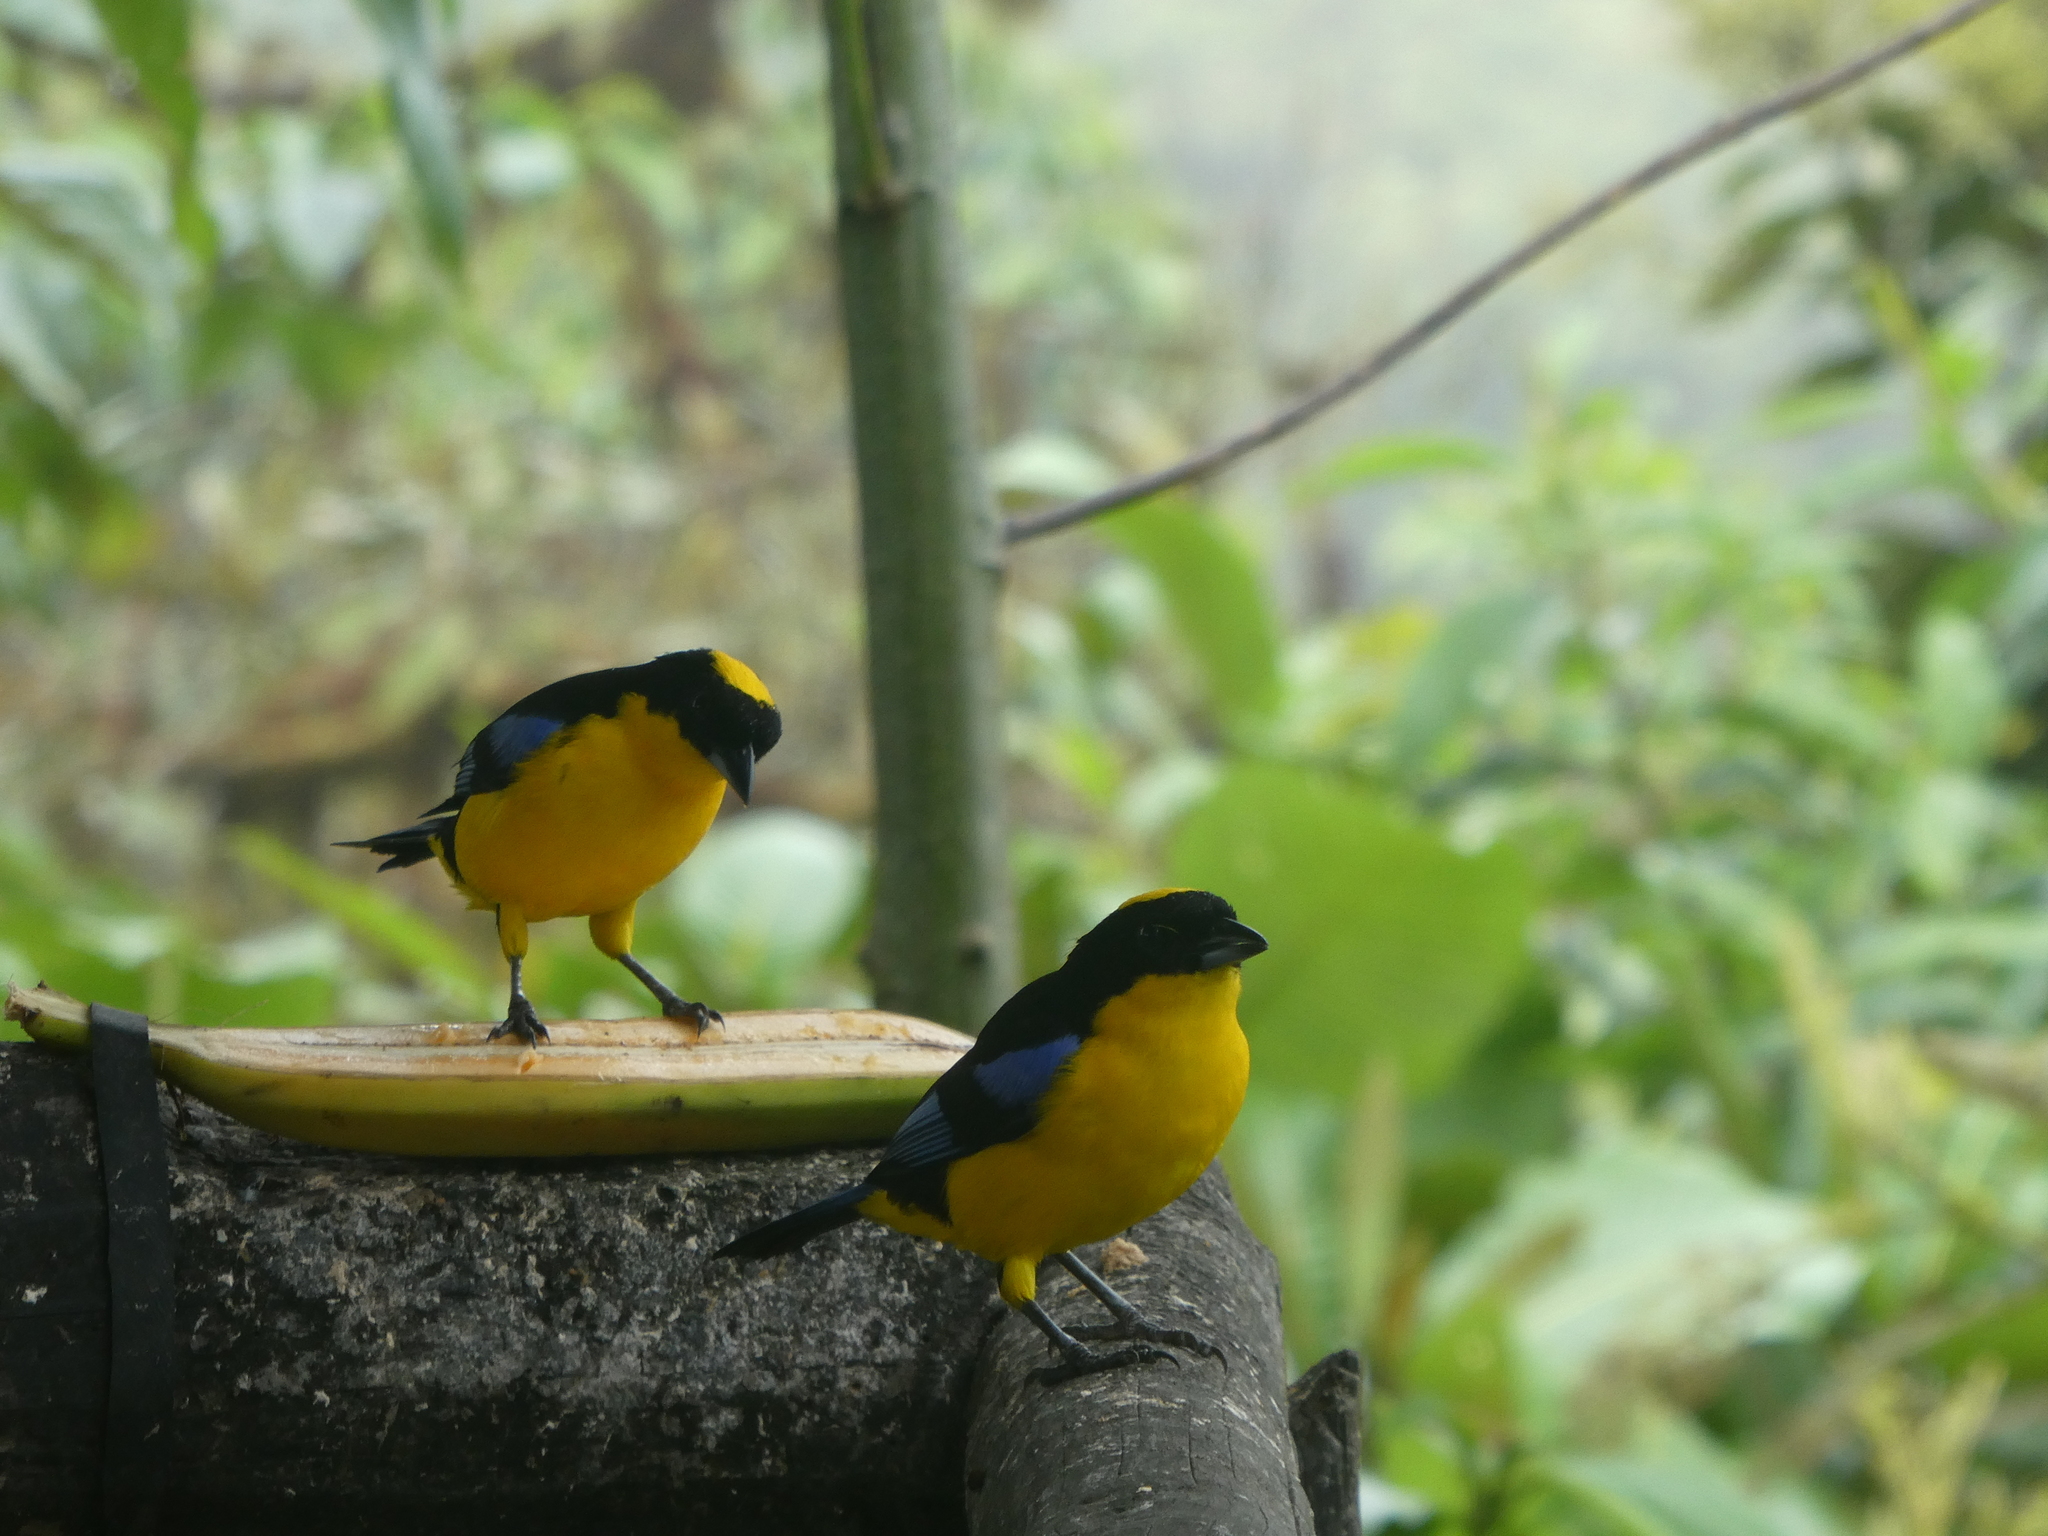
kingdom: Animalia
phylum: Chordata
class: Aves
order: Passeriformes
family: Thraupidae
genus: Anisognathus
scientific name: Anisognathus somptuosus
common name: Blue-winged mountain-tanager
